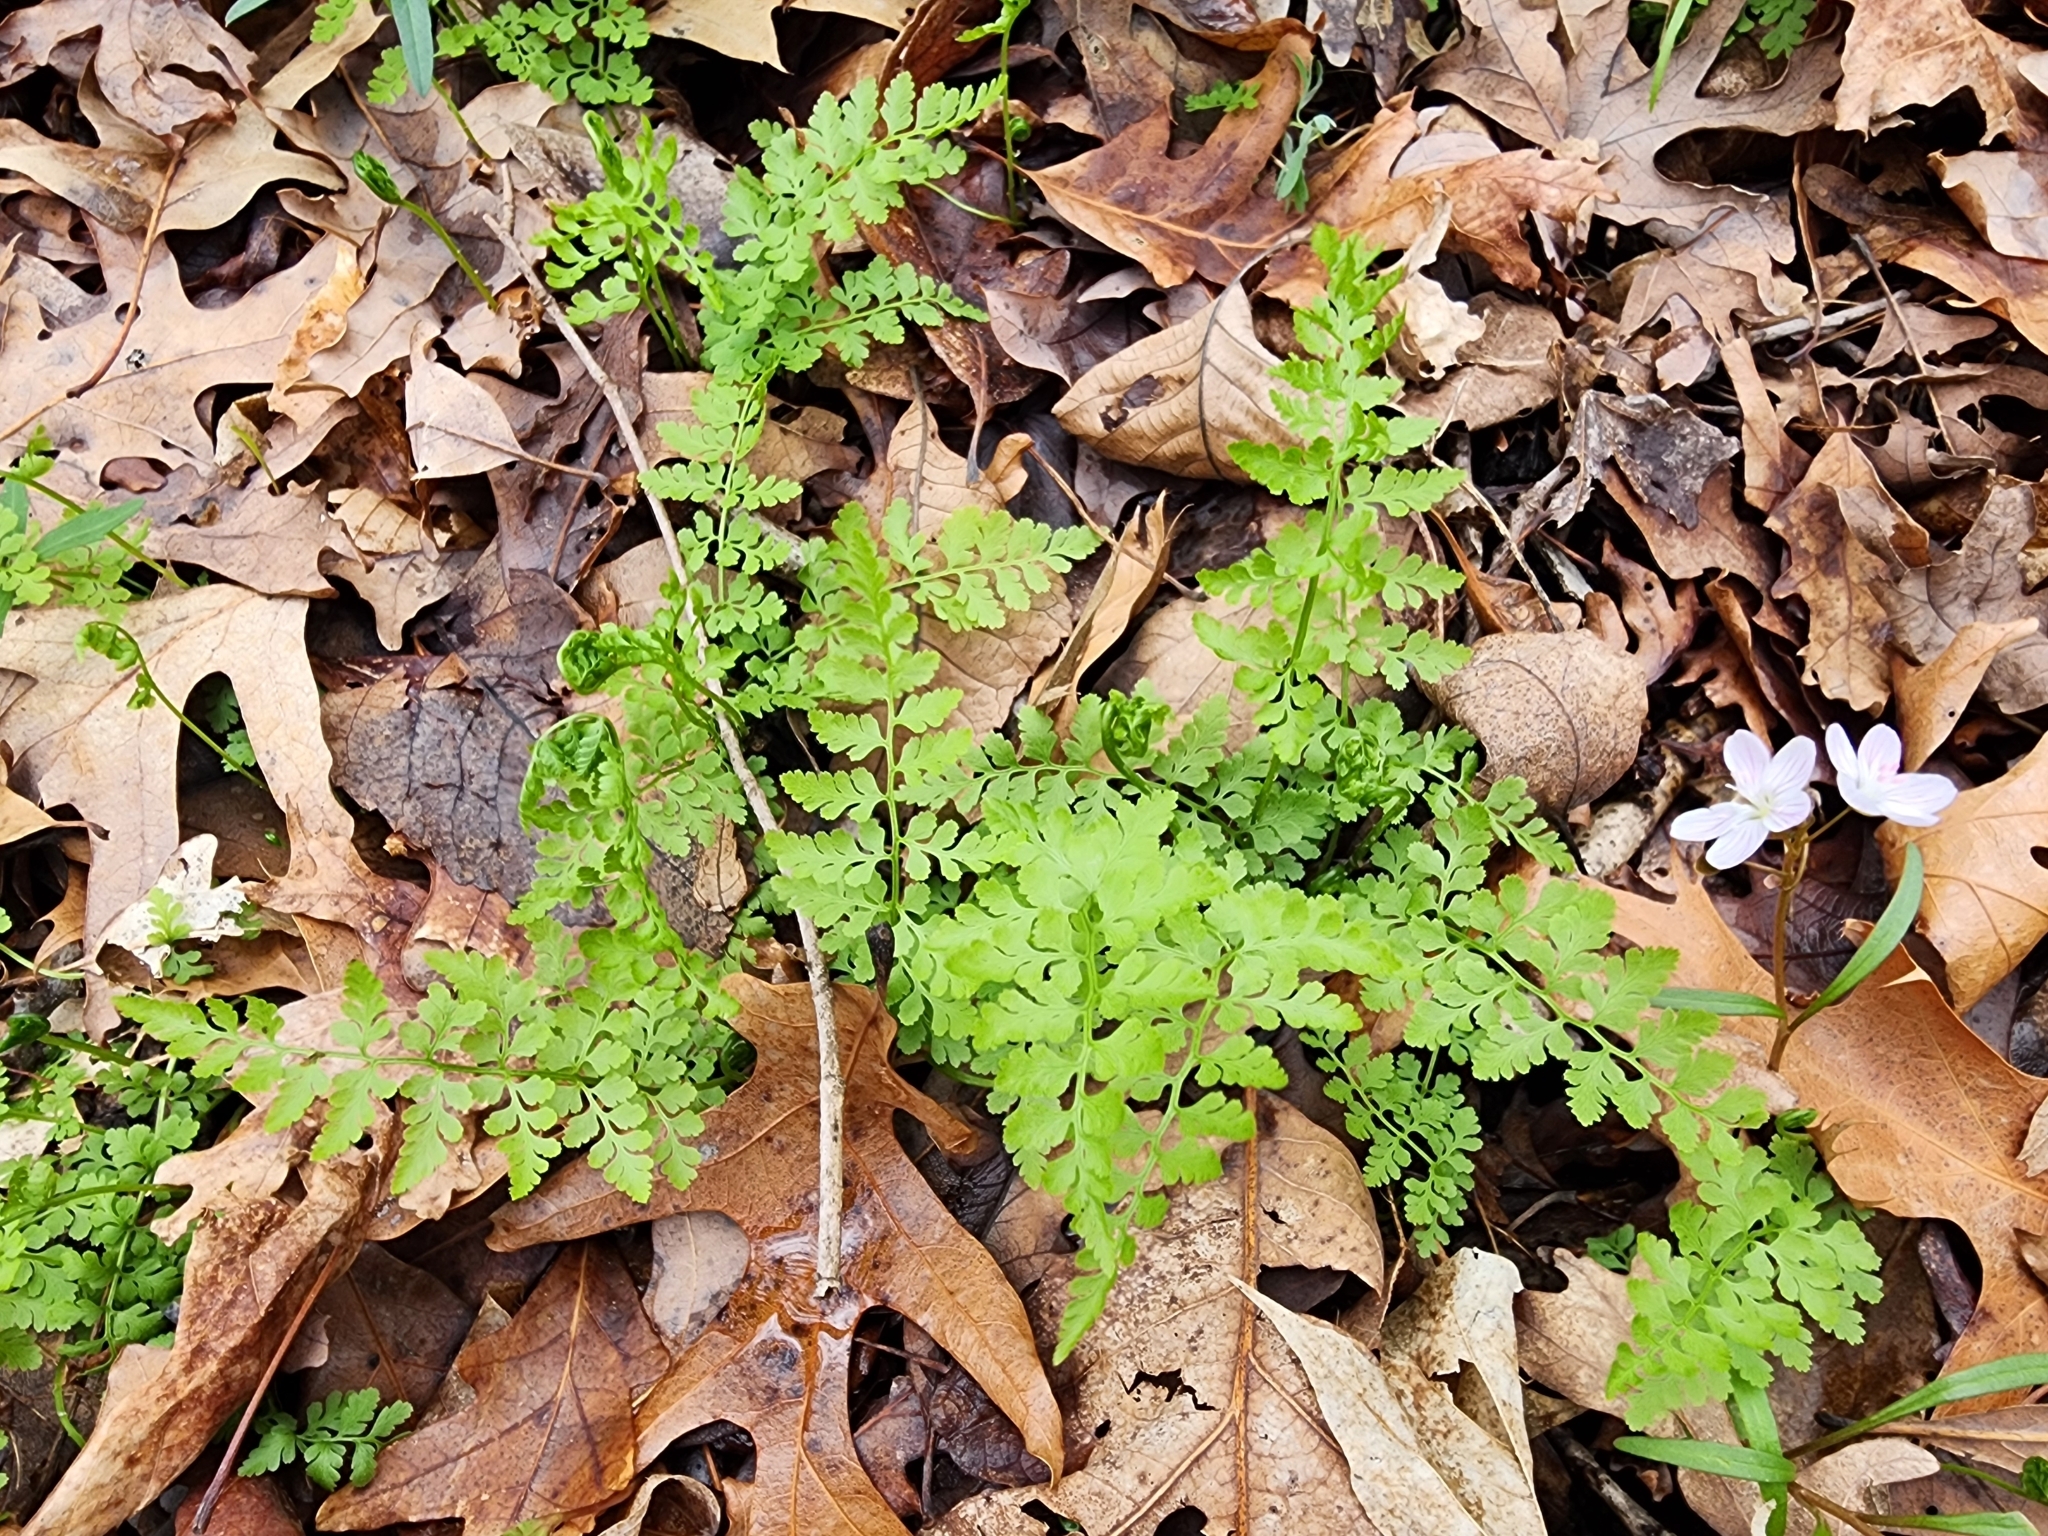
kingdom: Plantae
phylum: Tracheophyta
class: Polypodiopsida
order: Polypodiales
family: Cystopteridaceae
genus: Cystopteris
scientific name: Cystopteris protrusa
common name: Lowland brittle fern
